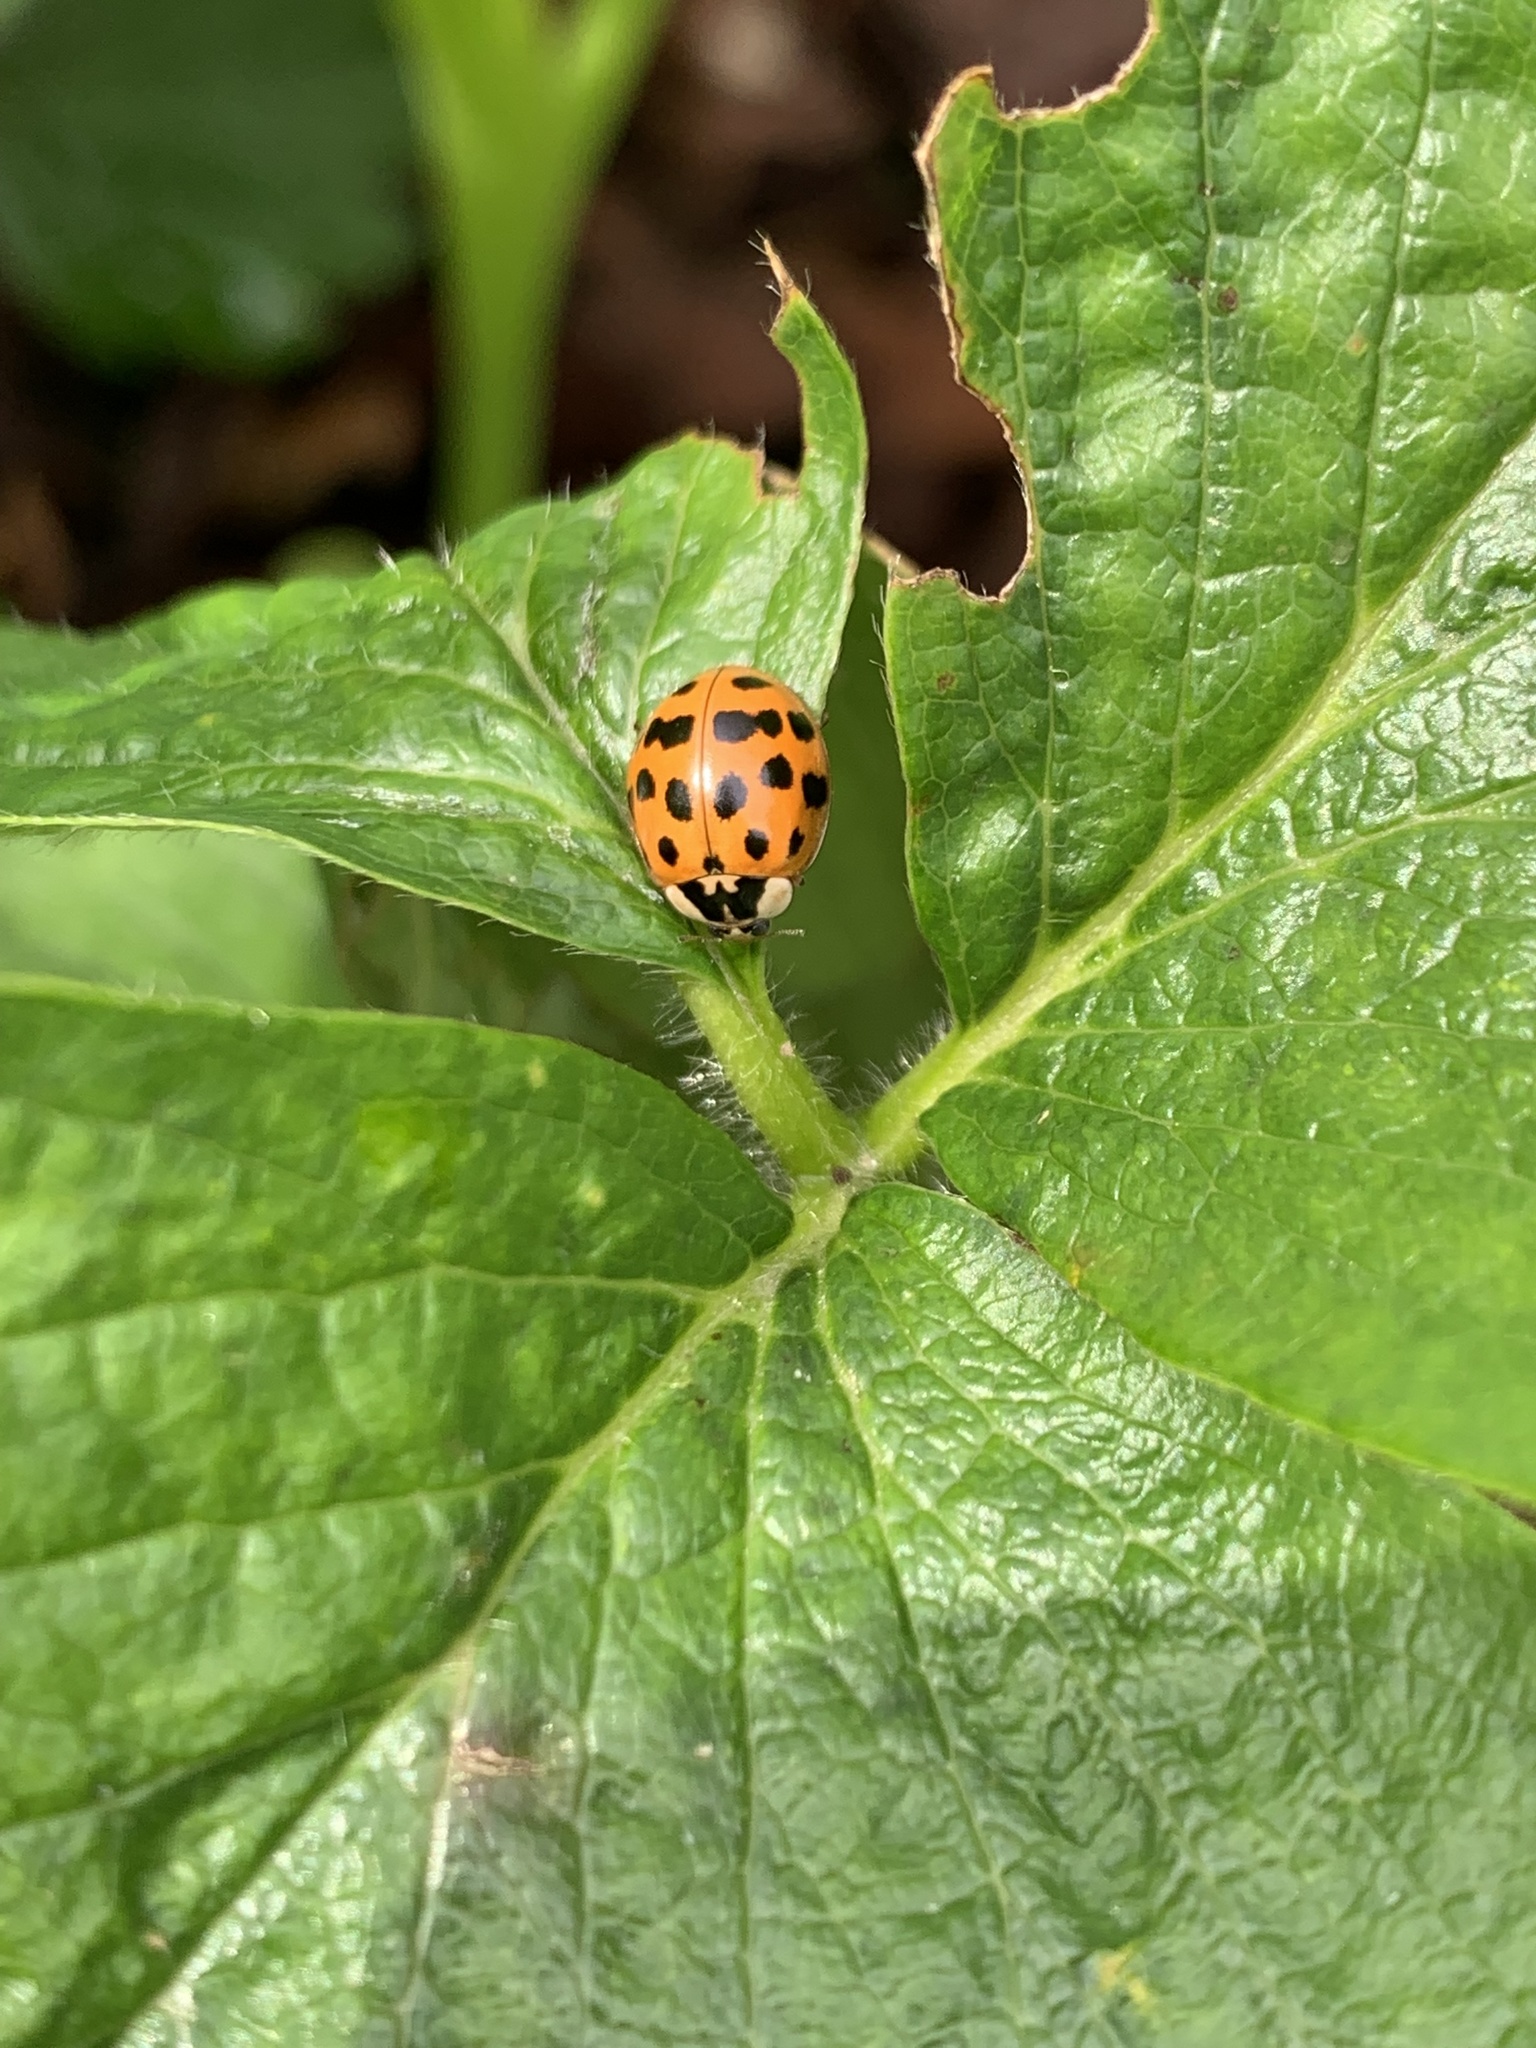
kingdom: Animalia
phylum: Arthropoda
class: Insecta
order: Coleoptera
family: Coccinellidae
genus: Harmonia
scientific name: Harmonia axyridis
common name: Harlequin ladybird
